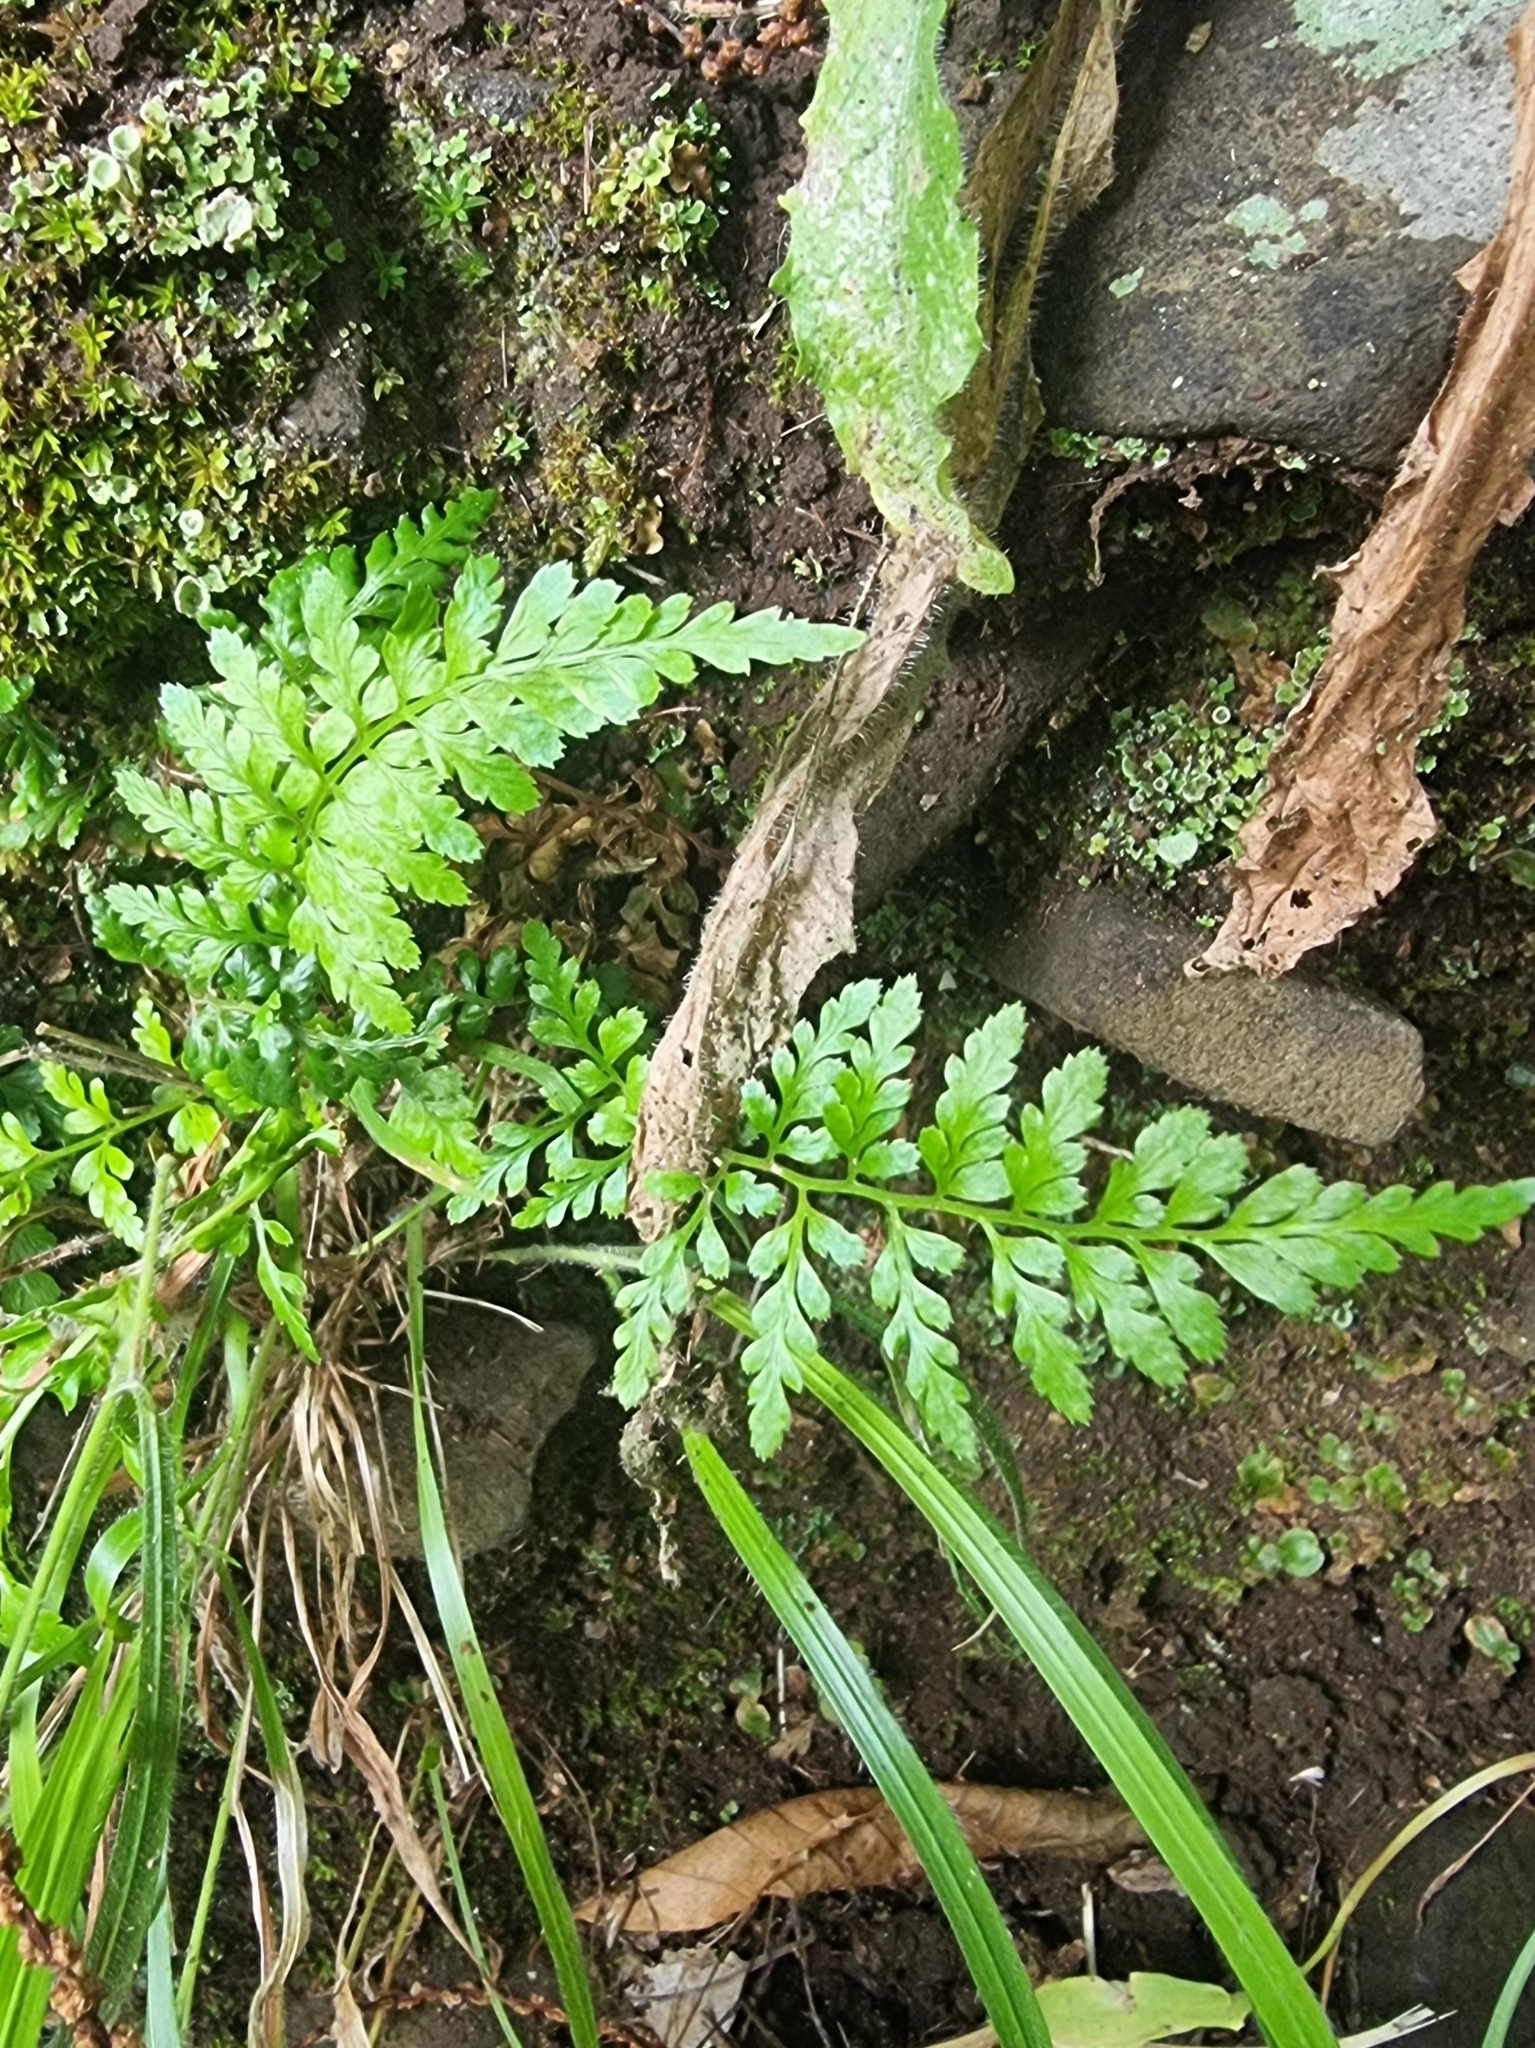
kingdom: Plantae
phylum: Tracheophyta
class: Polypodiopsida
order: Polypodiales
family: Aspleniaceae
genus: Asplenium
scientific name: Asplenium adiantum-nigrum
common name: Black spleenwort
